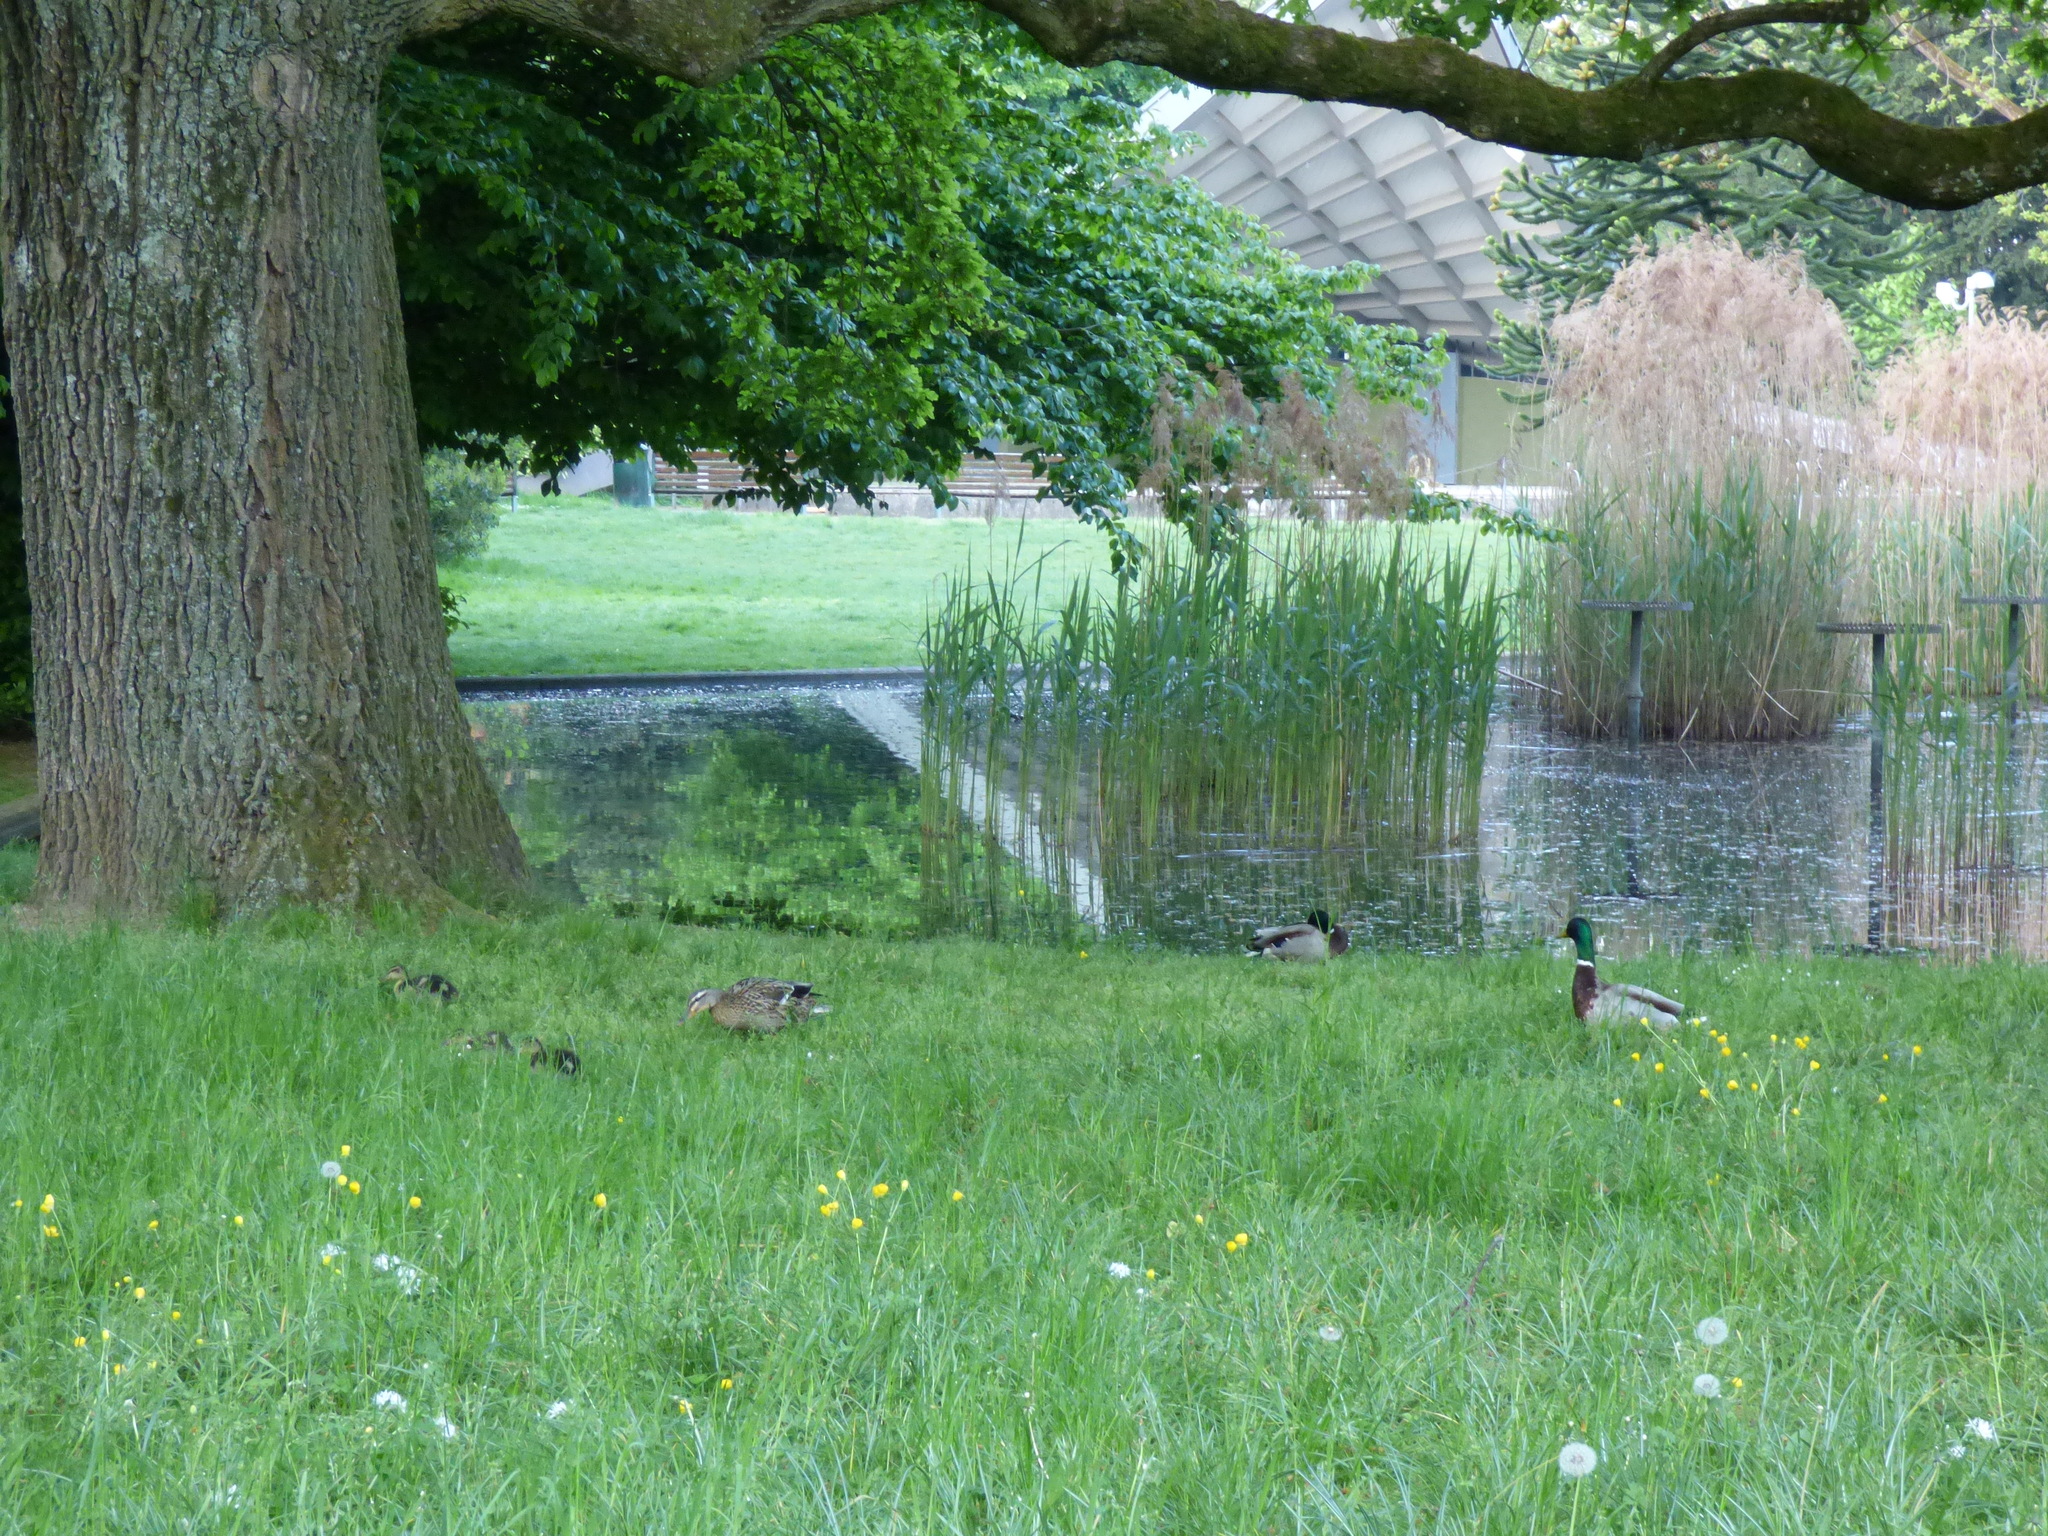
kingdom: Animalia
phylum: Chordata
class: Aves
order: Anseriformes
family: Anatidae
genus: Anas
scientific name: Anas platyrhynchos
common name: Mallard
